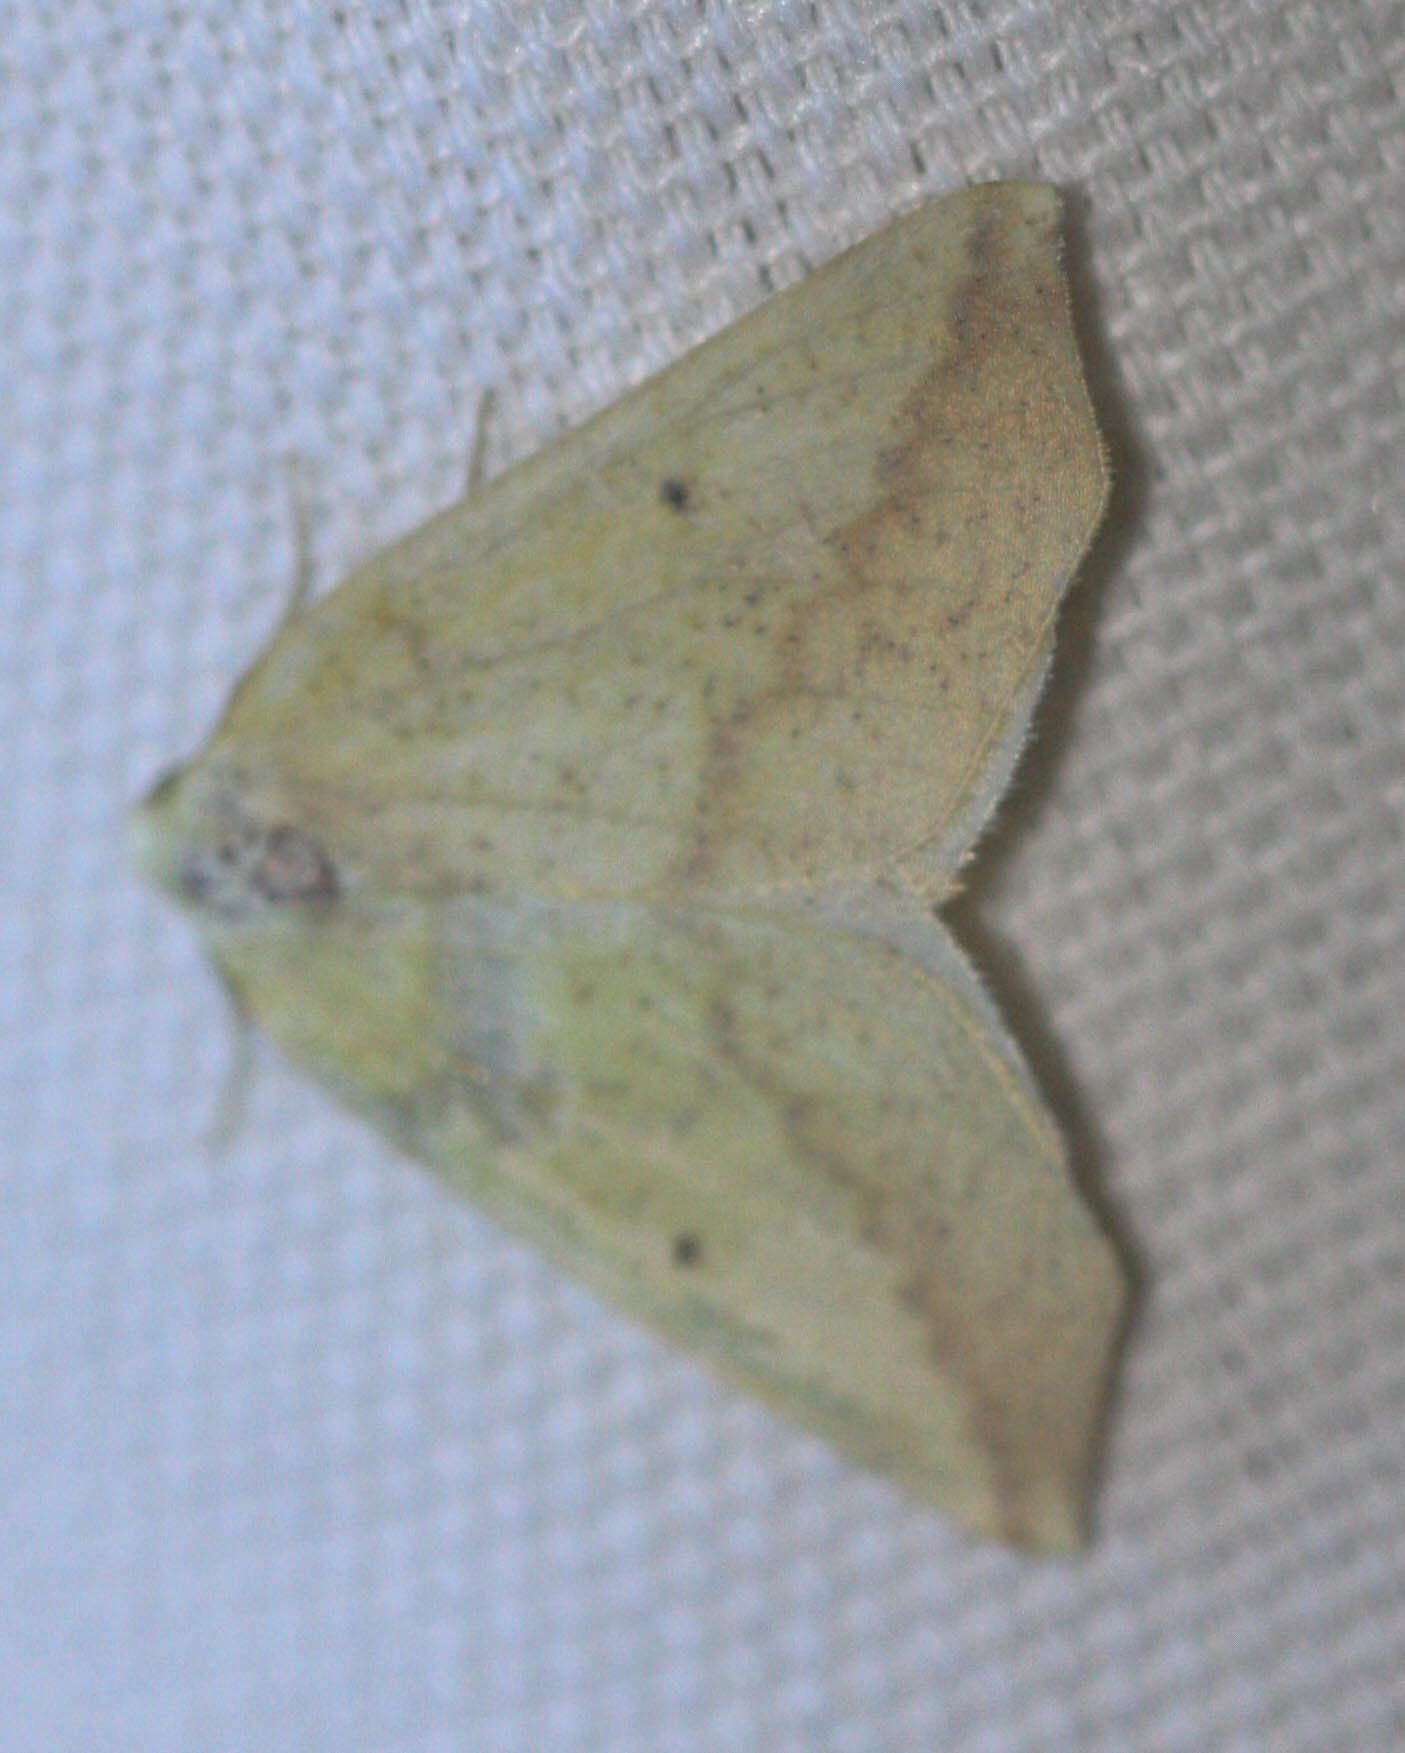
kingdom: Animalia
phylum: Arthropoda
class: Insecta
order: Lepidoptera
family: Geometridae
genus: Neoterpes
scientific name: Neoterpes edwardsata
